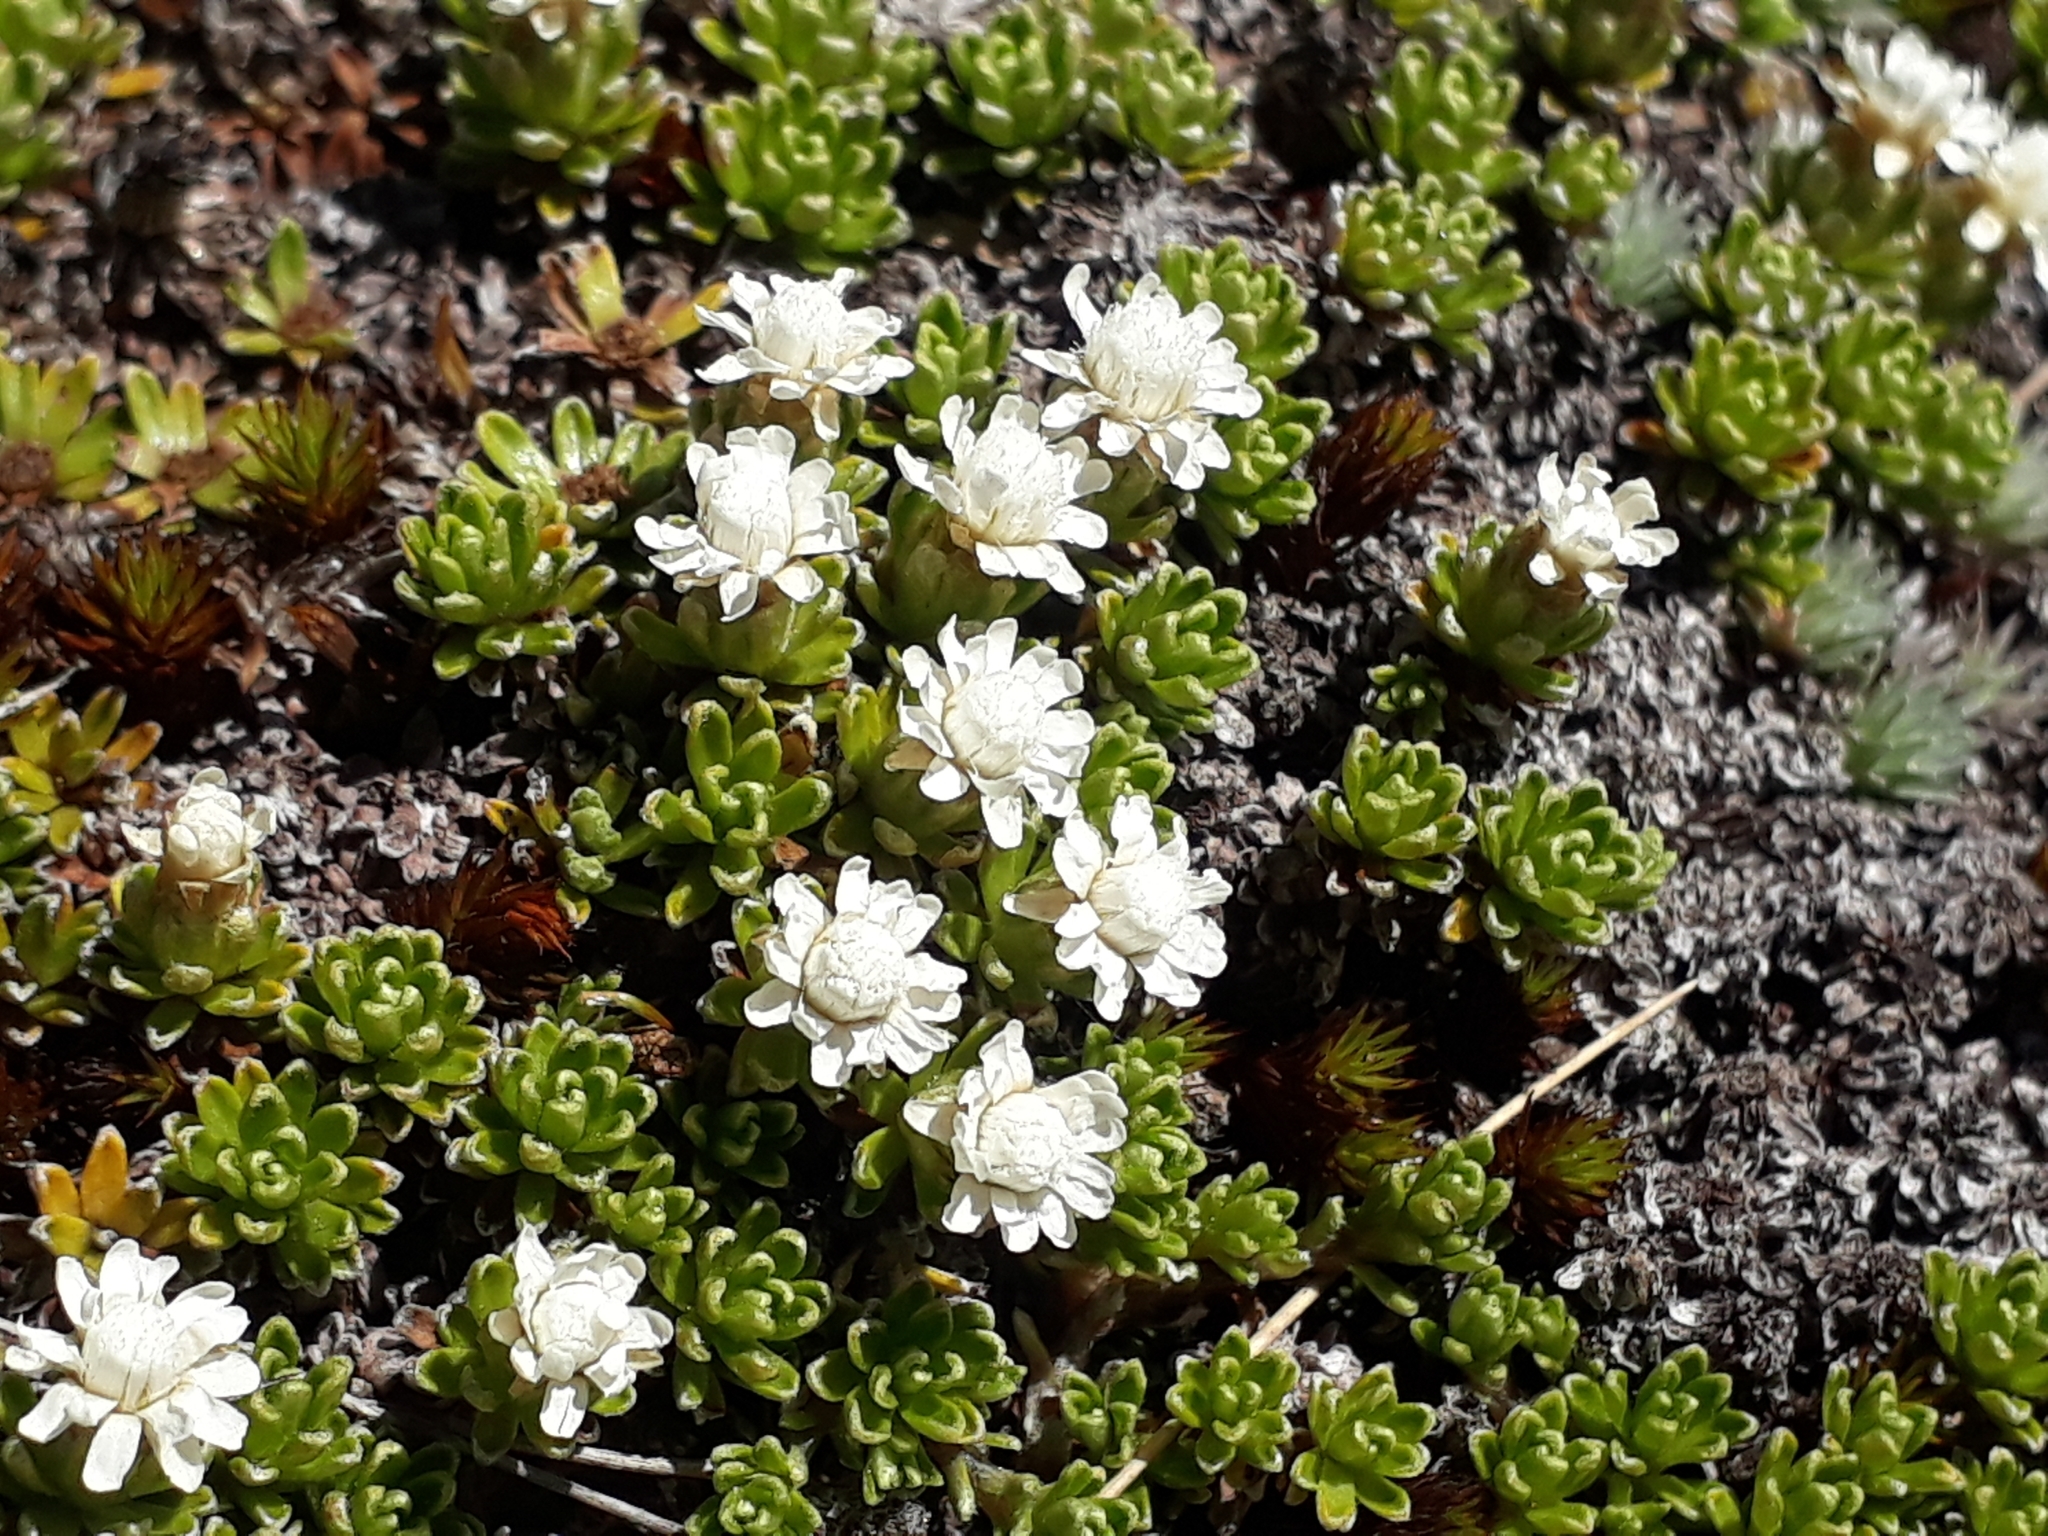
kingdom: Plantae
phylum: Tracheophyta
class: Magnoliopsida
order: Asterales
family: Asteraceae
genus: Raoulia
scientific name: Raoulia subsericea
